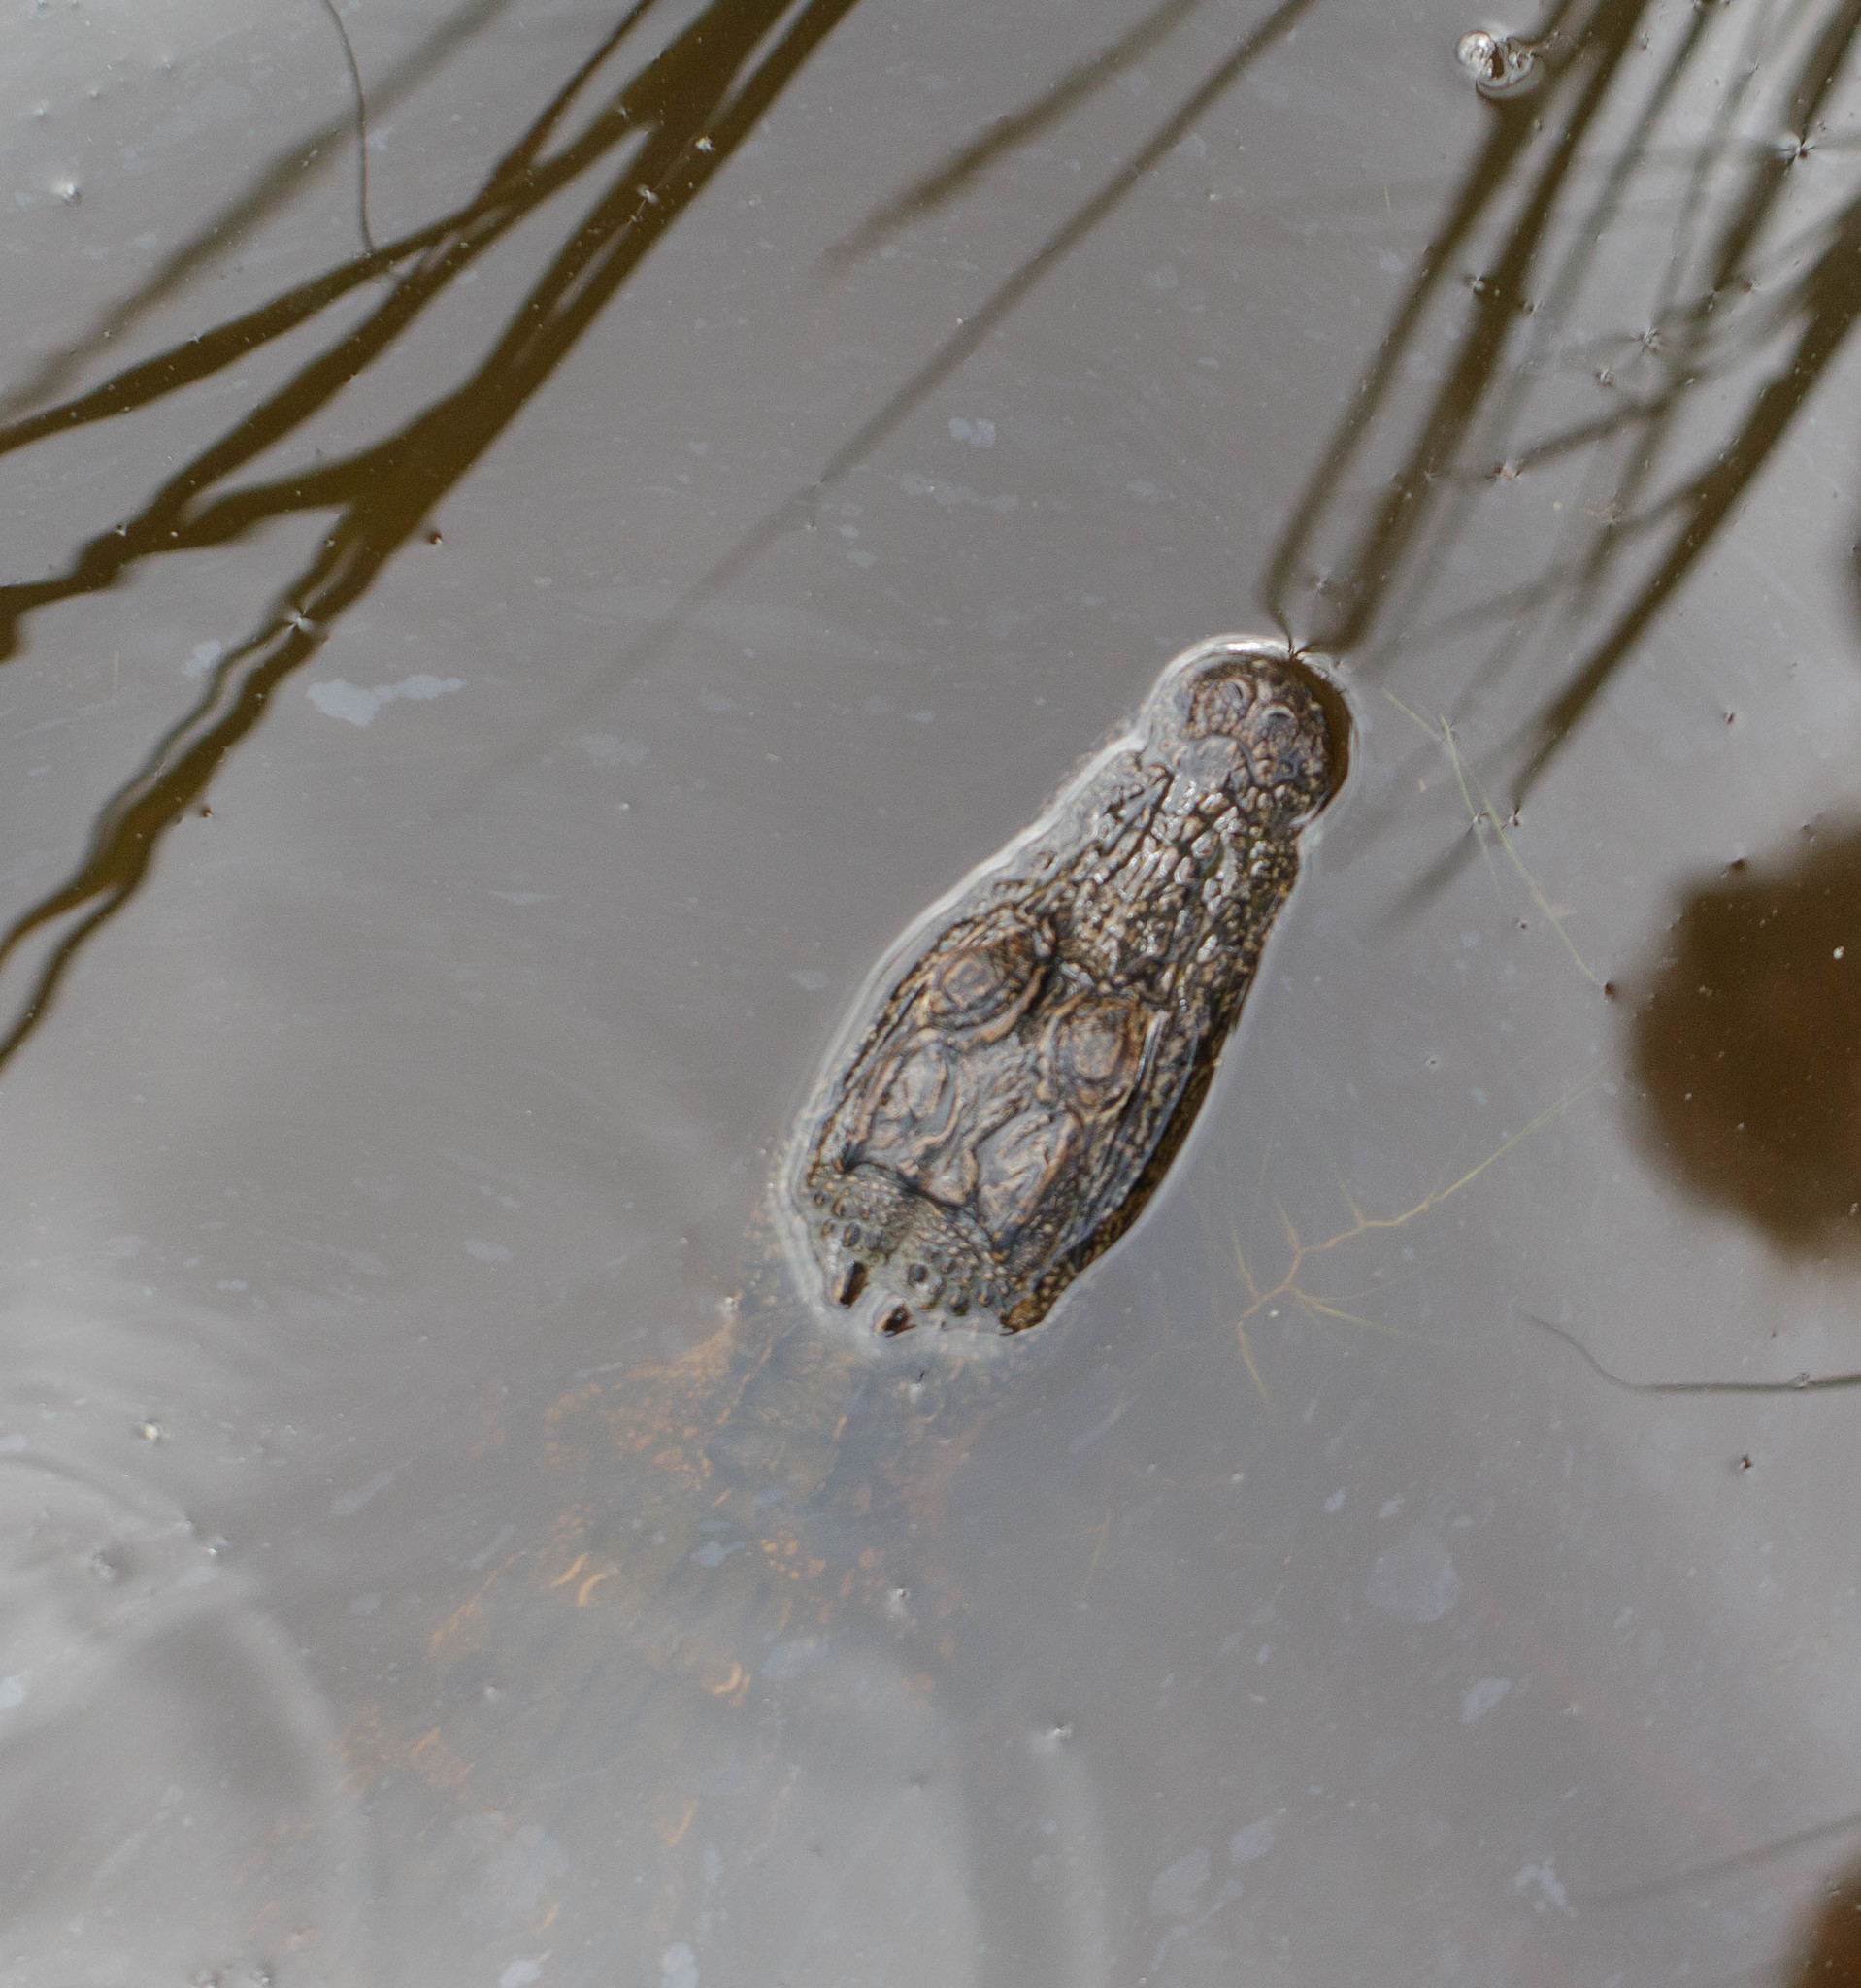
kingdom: Animalia
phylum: Chordata
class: Crocodylia
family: Alligatoridae
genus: Alligator
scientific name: Alligator mississippiensis
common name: American alligator
